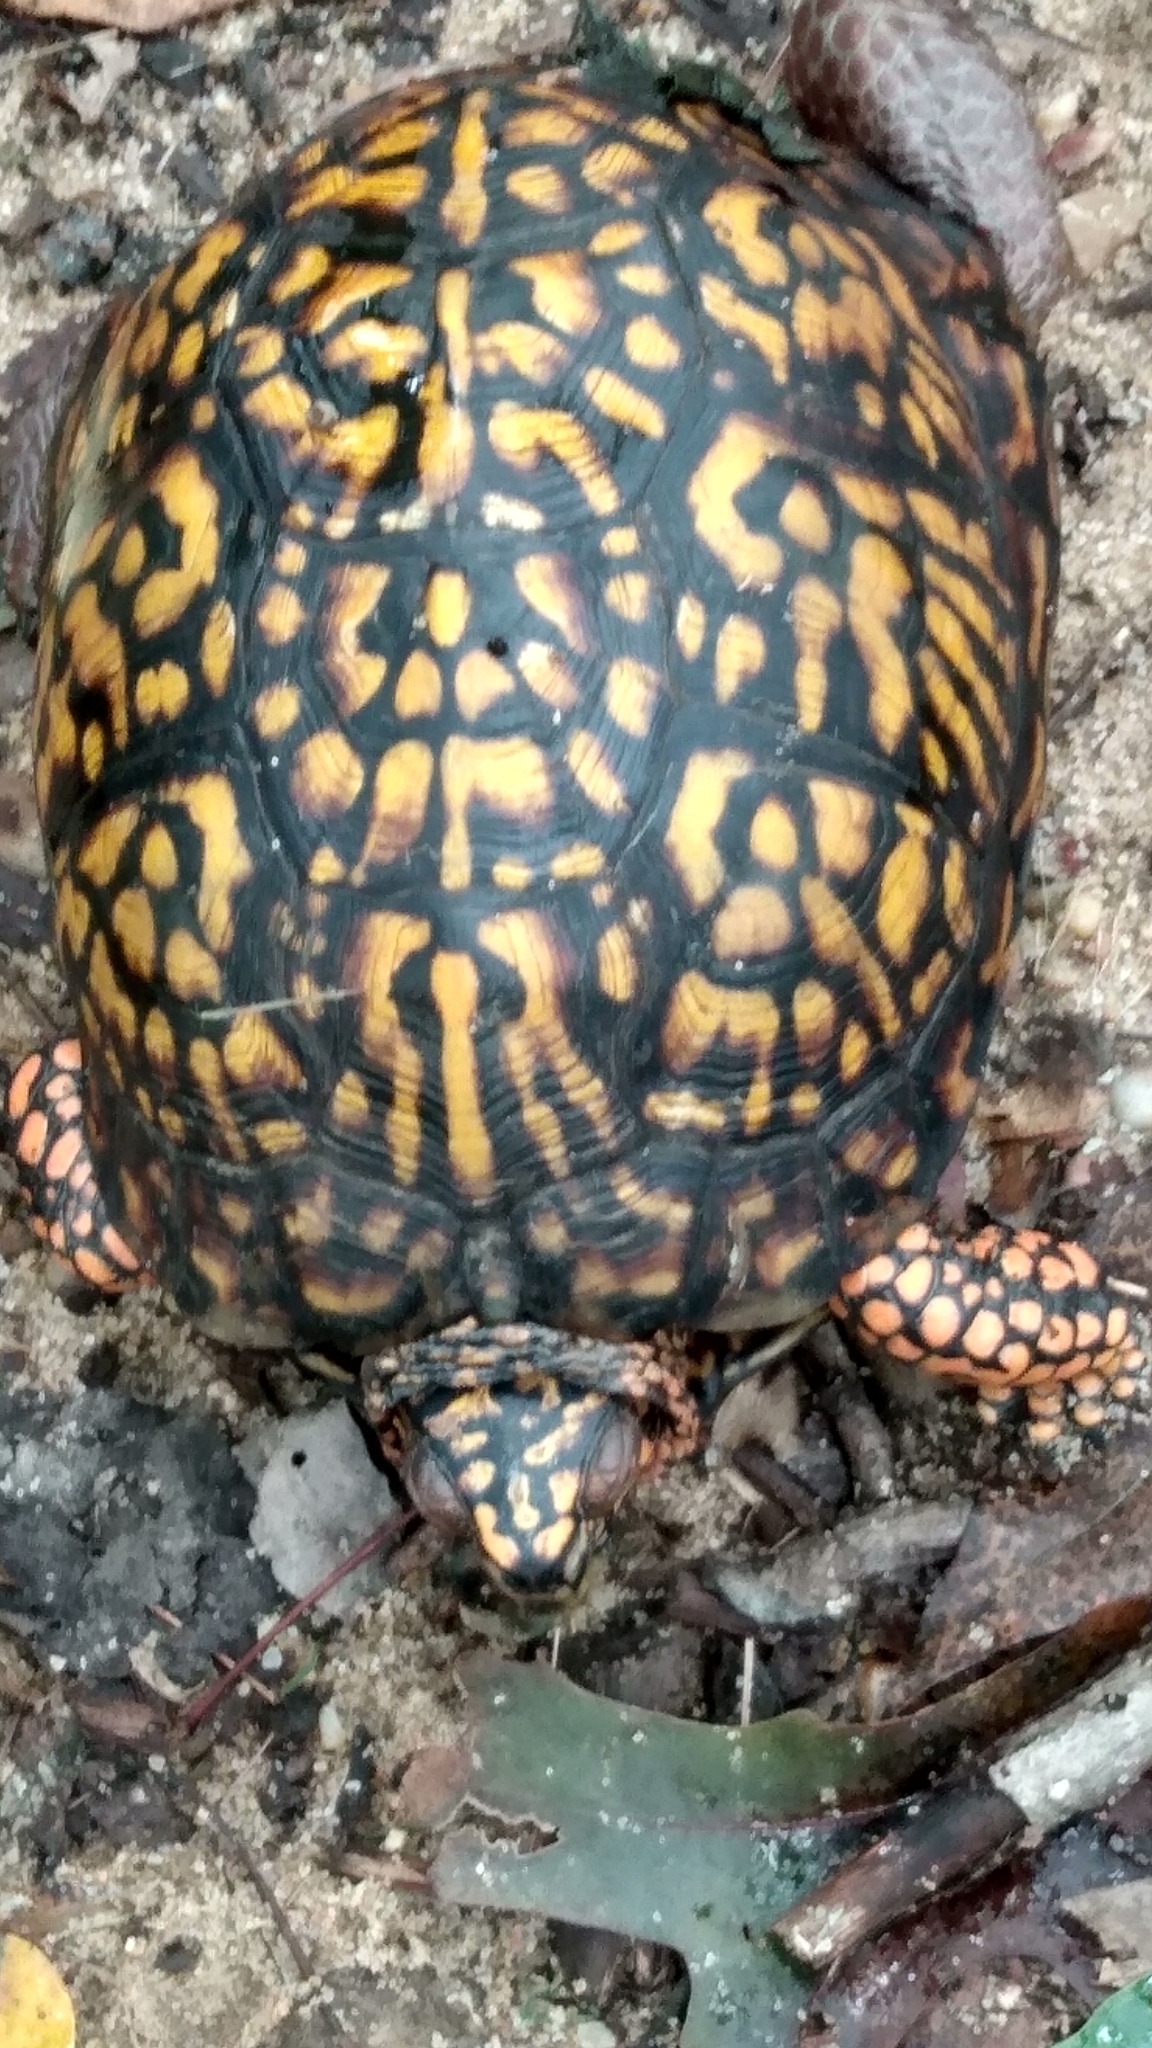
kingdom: Animalia
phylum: Chordata
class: Testudines
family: Emydidae
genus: Terrapene
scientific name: Terrapene carolina
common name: Common box turtle
